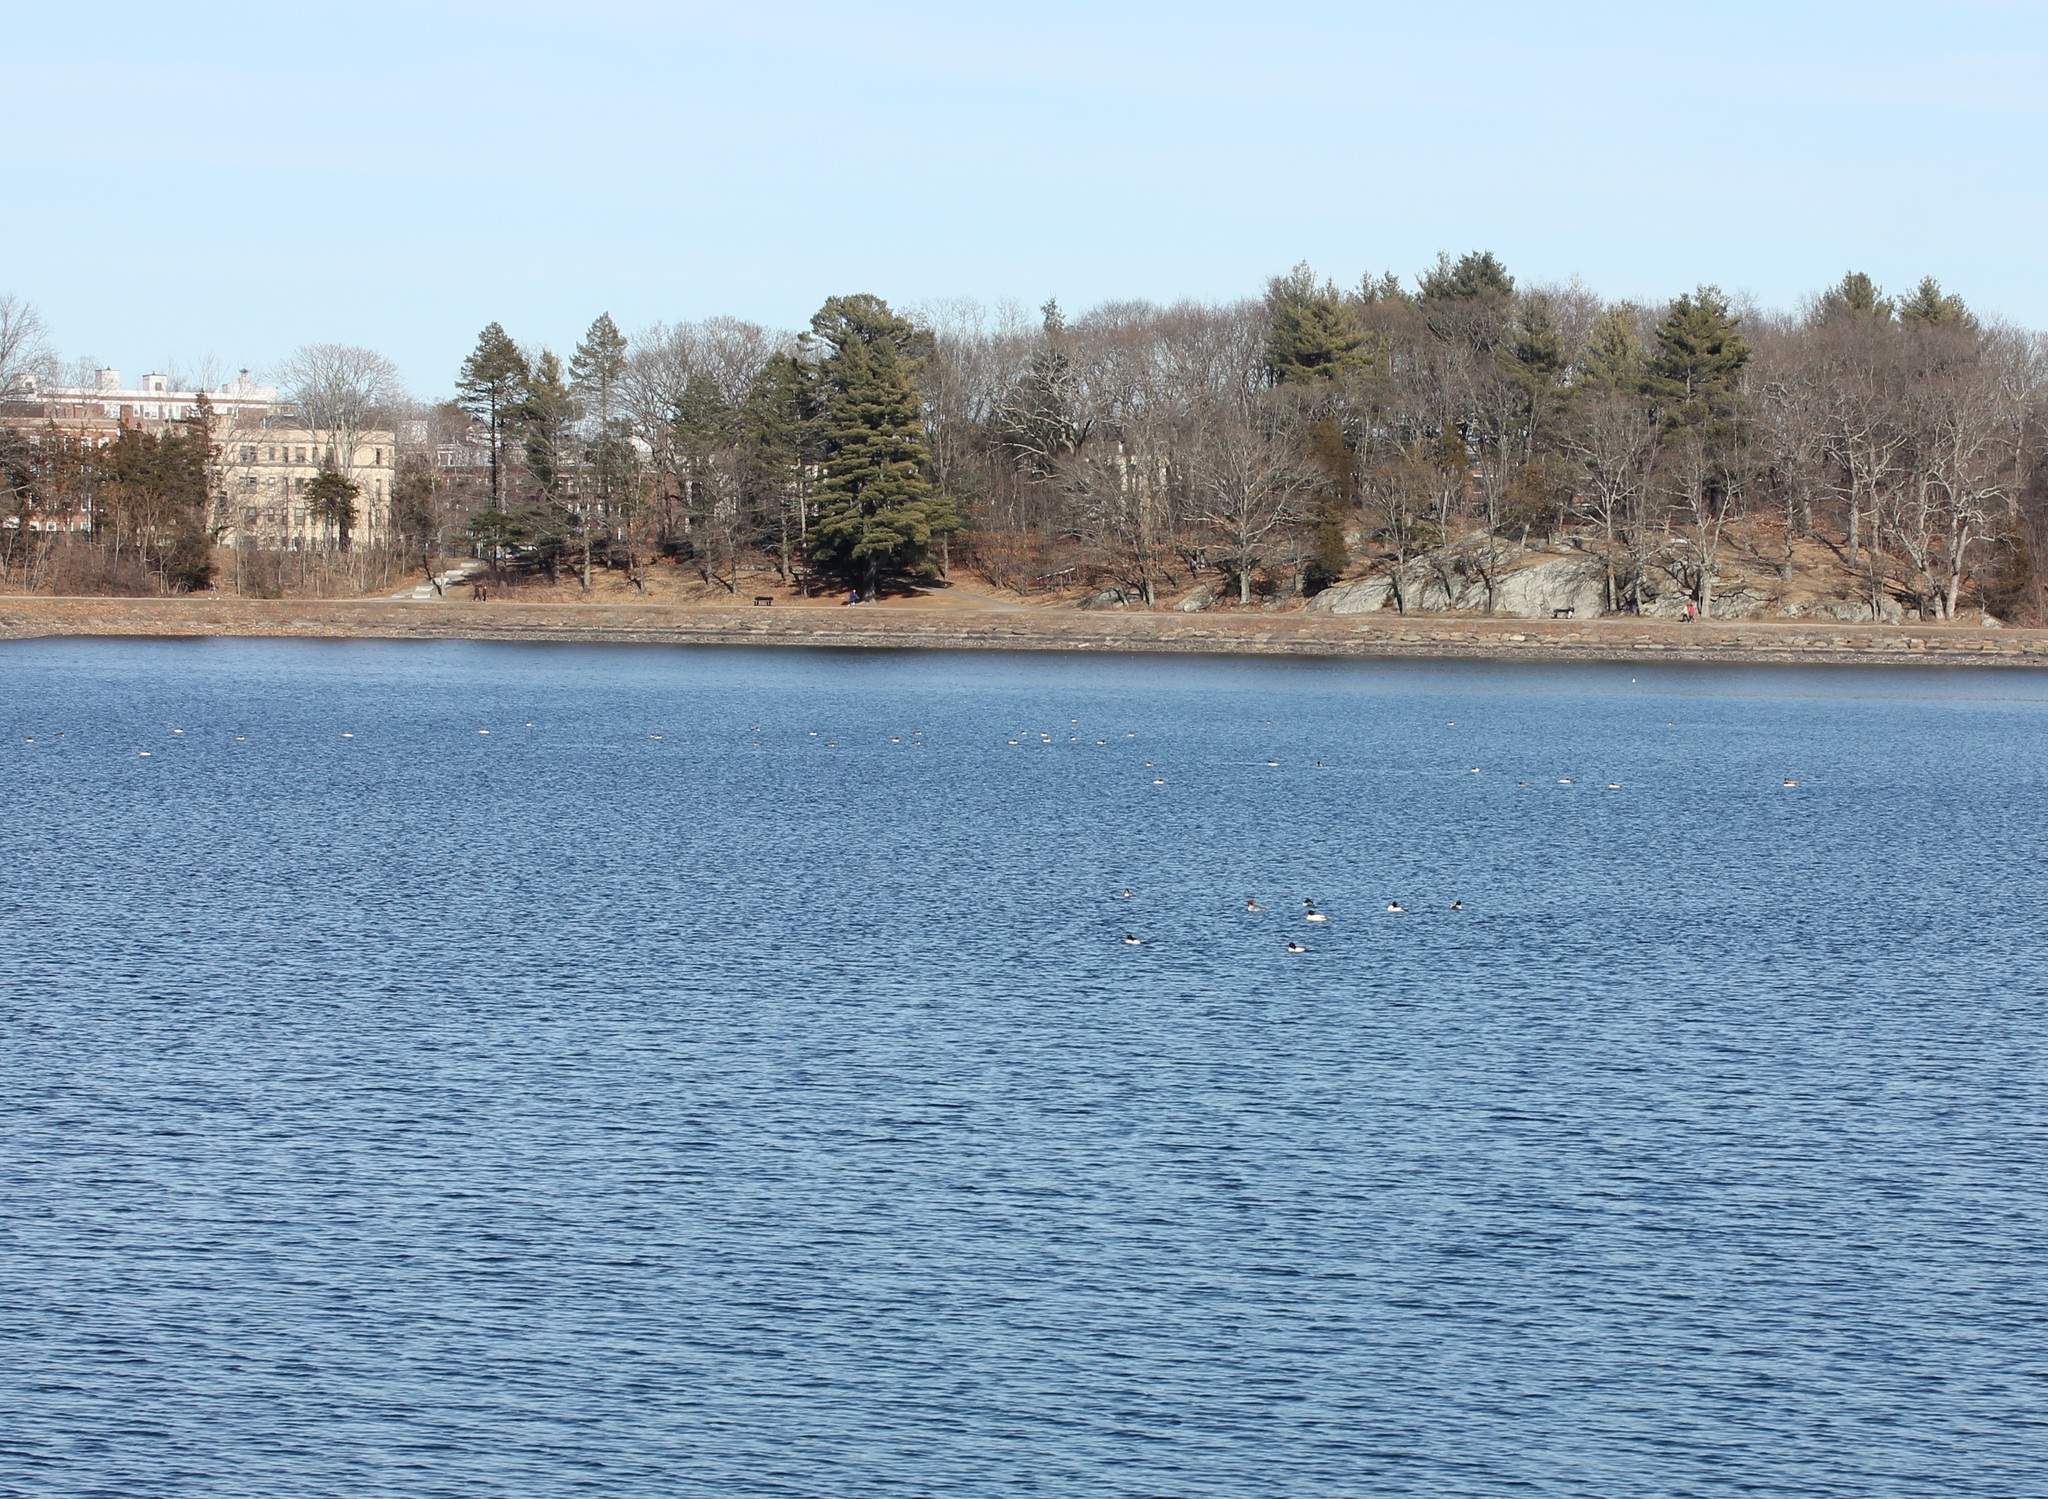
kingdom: Animalia
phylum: Chordata
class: Aves
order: Anseriformes
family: Anatidae
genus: Mergus
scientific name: Mergus merganser
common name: Common merganser
